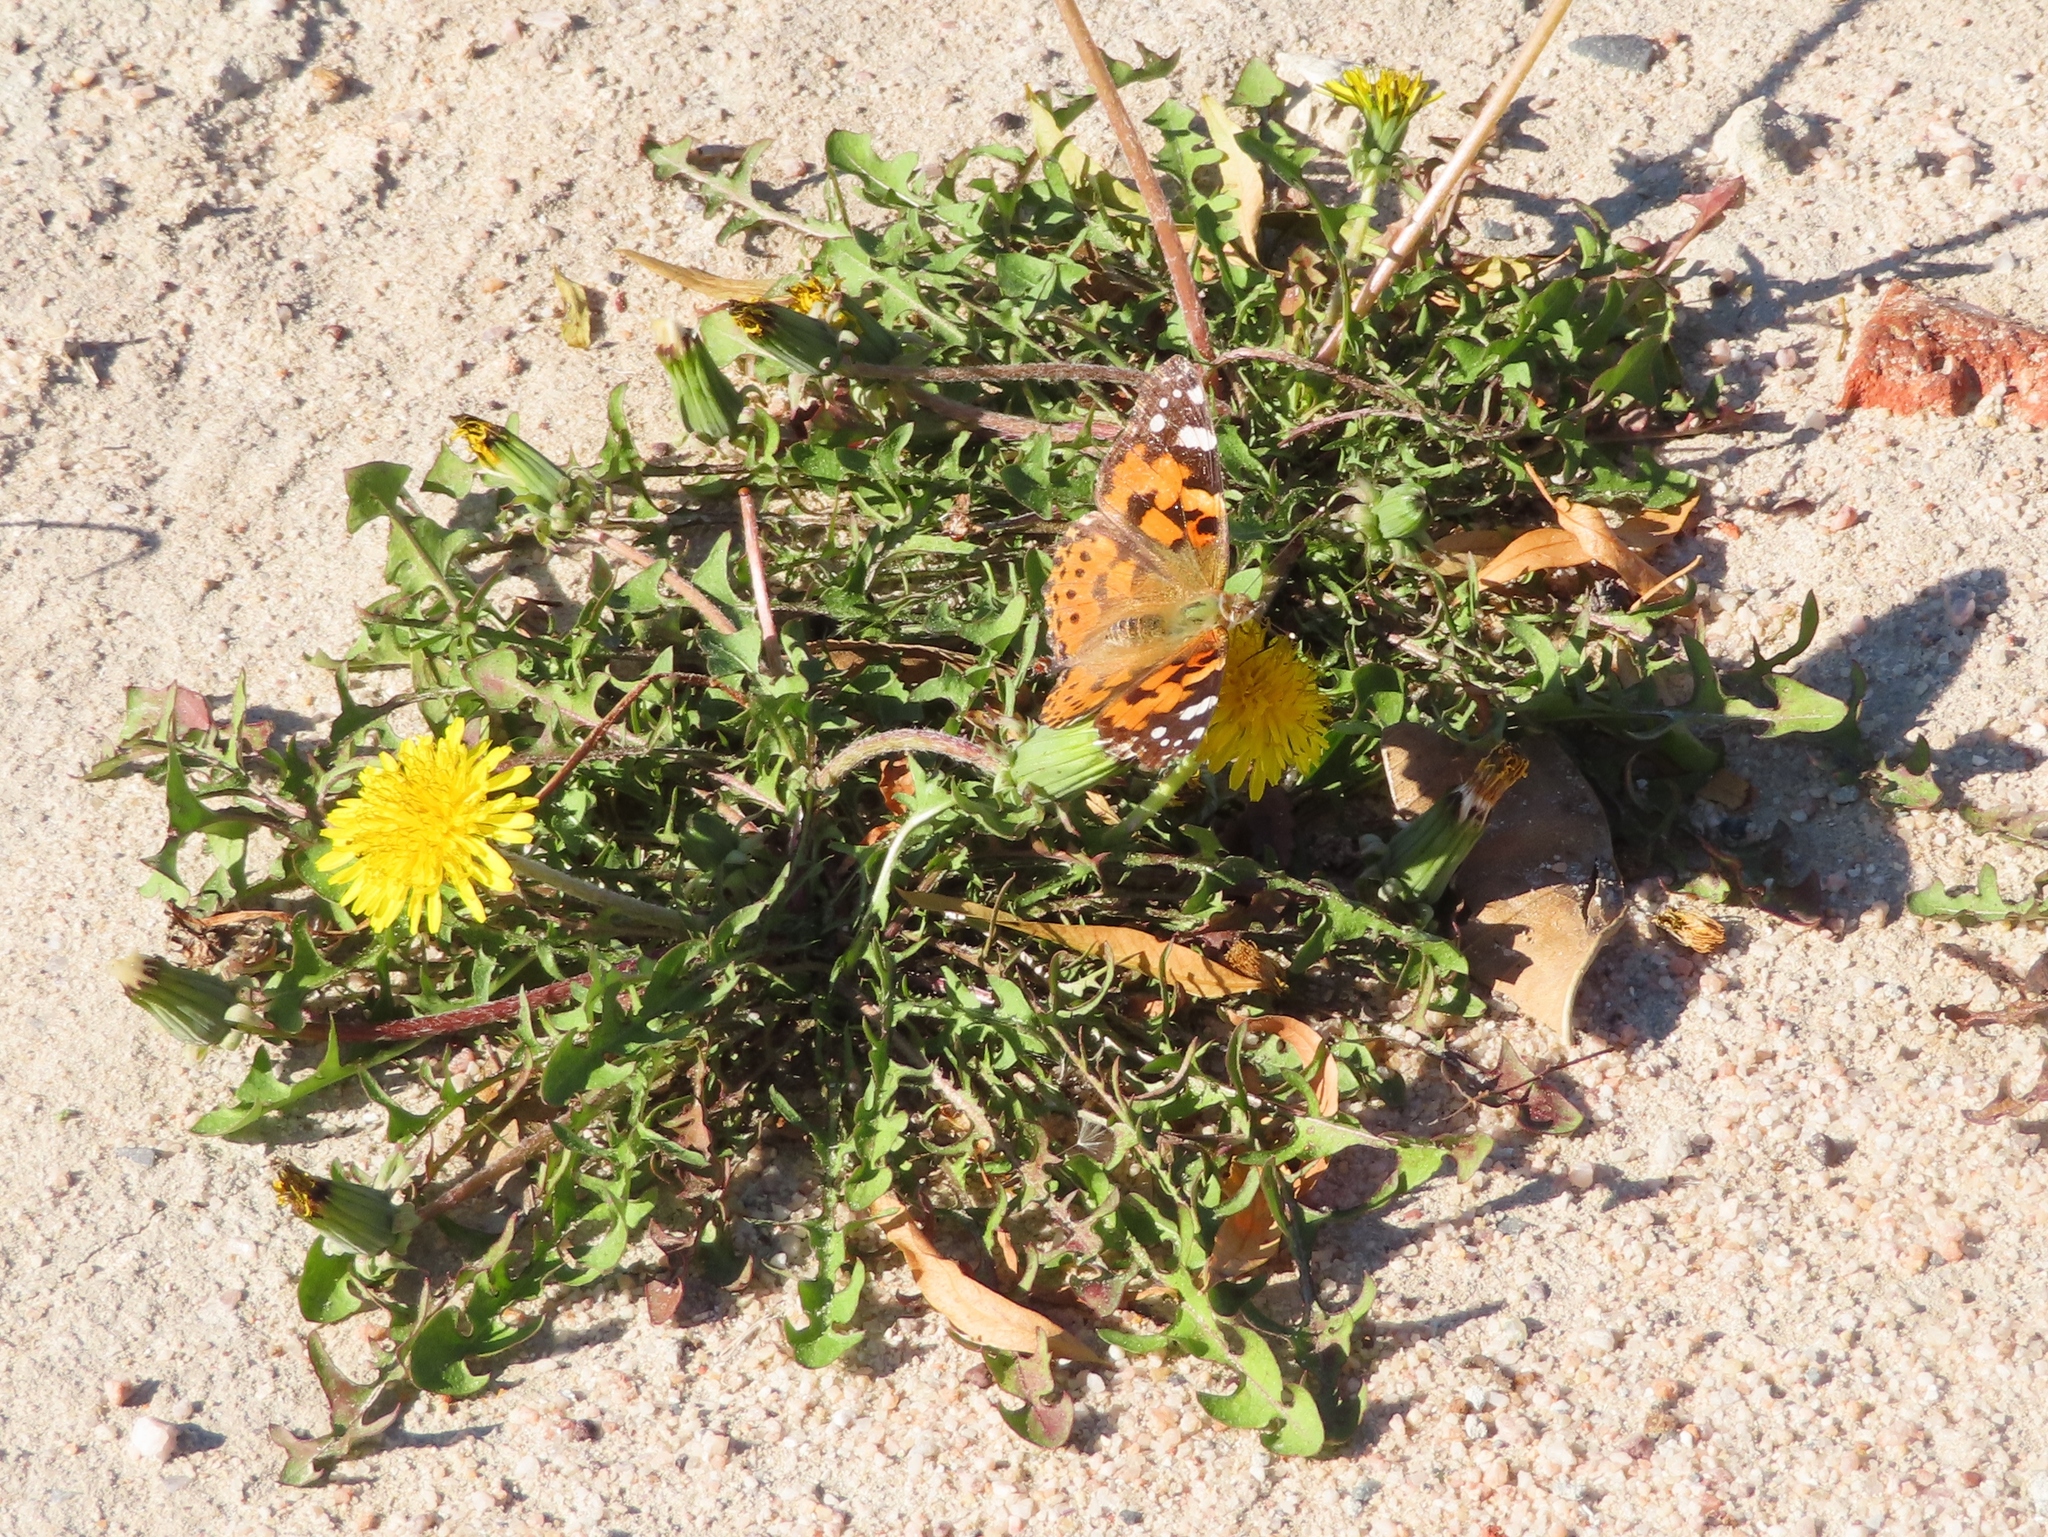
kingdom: Plantae
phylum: Tracheophyta
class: Magnoliopsida
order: Asterales
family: Asteraceae
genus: Taraxacum
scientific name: Taraxacum officinale
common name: Common dandelion
